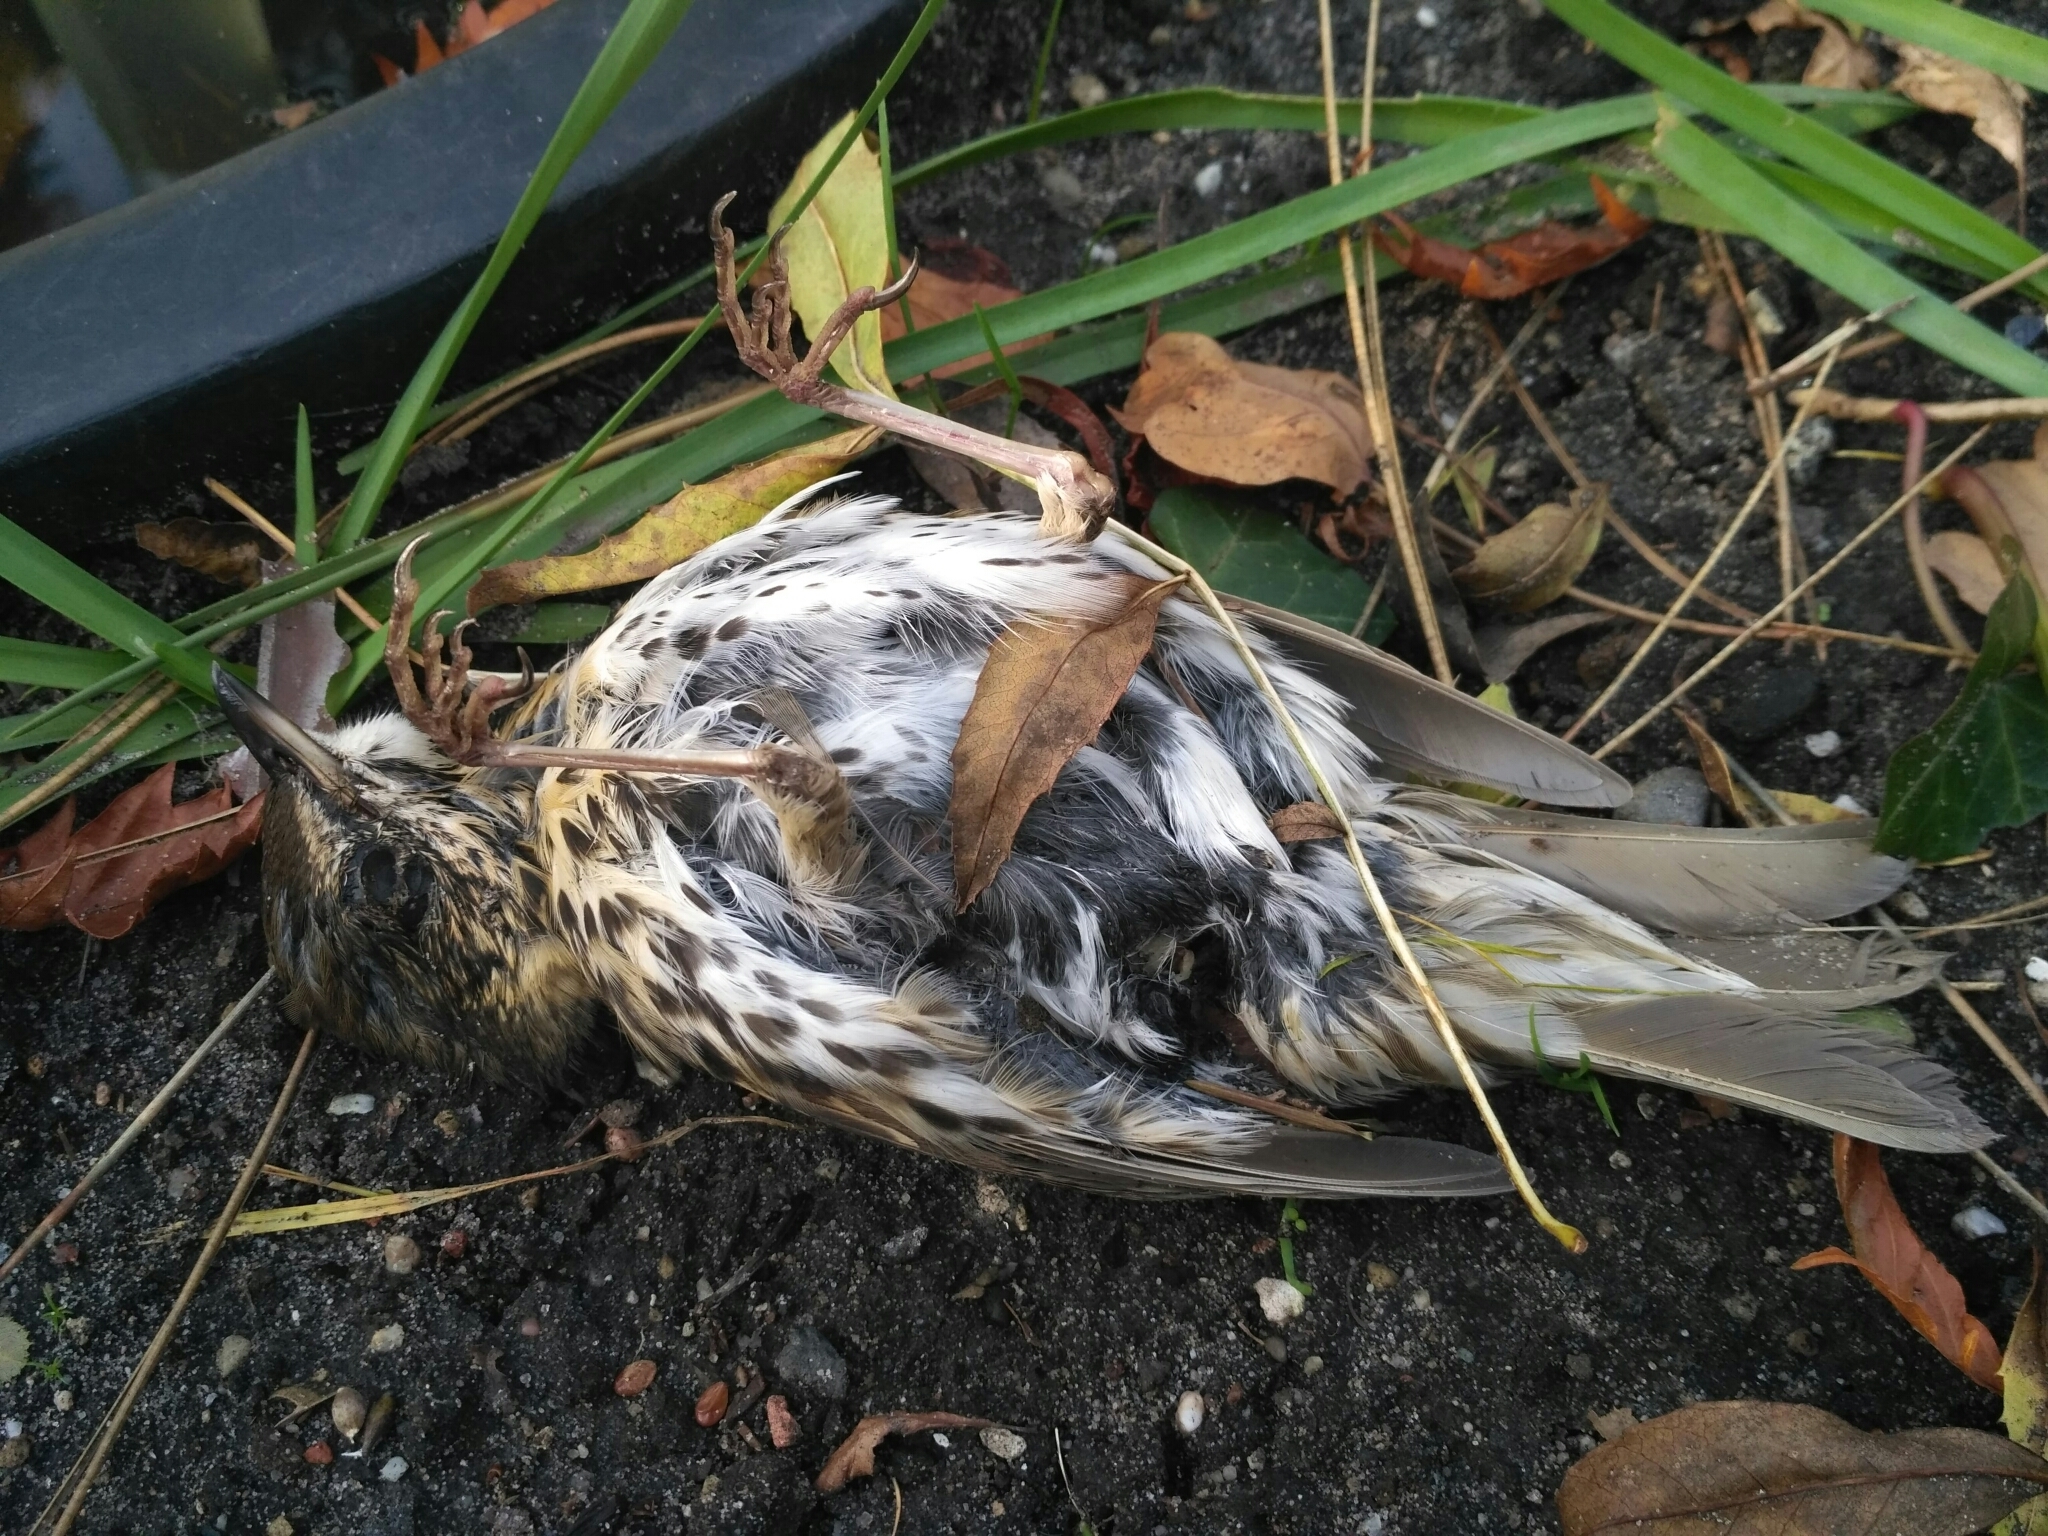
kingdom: Animalia
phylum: Chordata
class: Aves
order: Passeriformes
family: Turdidae
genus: Turdus
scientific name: Turdus philomelos
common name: Song thrush
